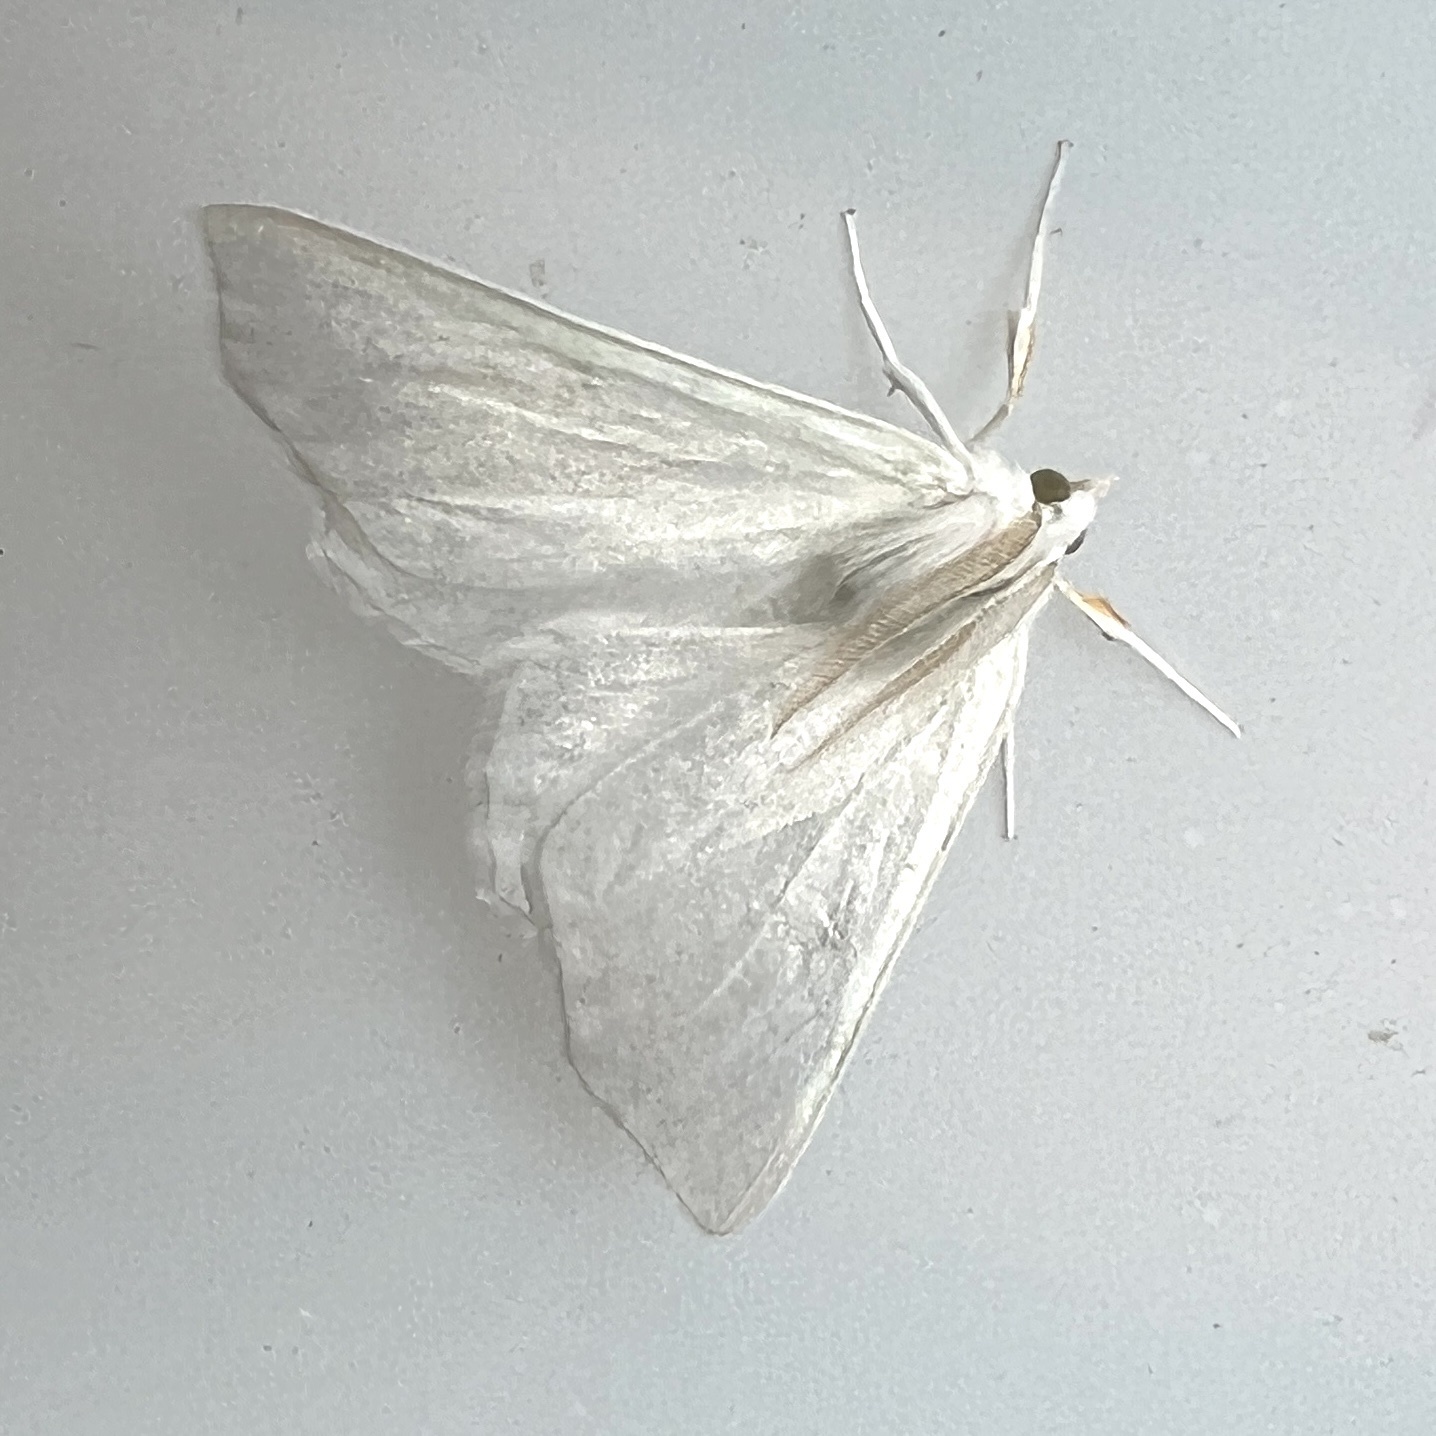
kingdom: Animalia
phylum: Arthropoda
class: Insecta
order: Lepidoptera
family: Geometridae
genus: Ennomos
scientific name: Ennomos subsignaria
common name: Elm spanworm
